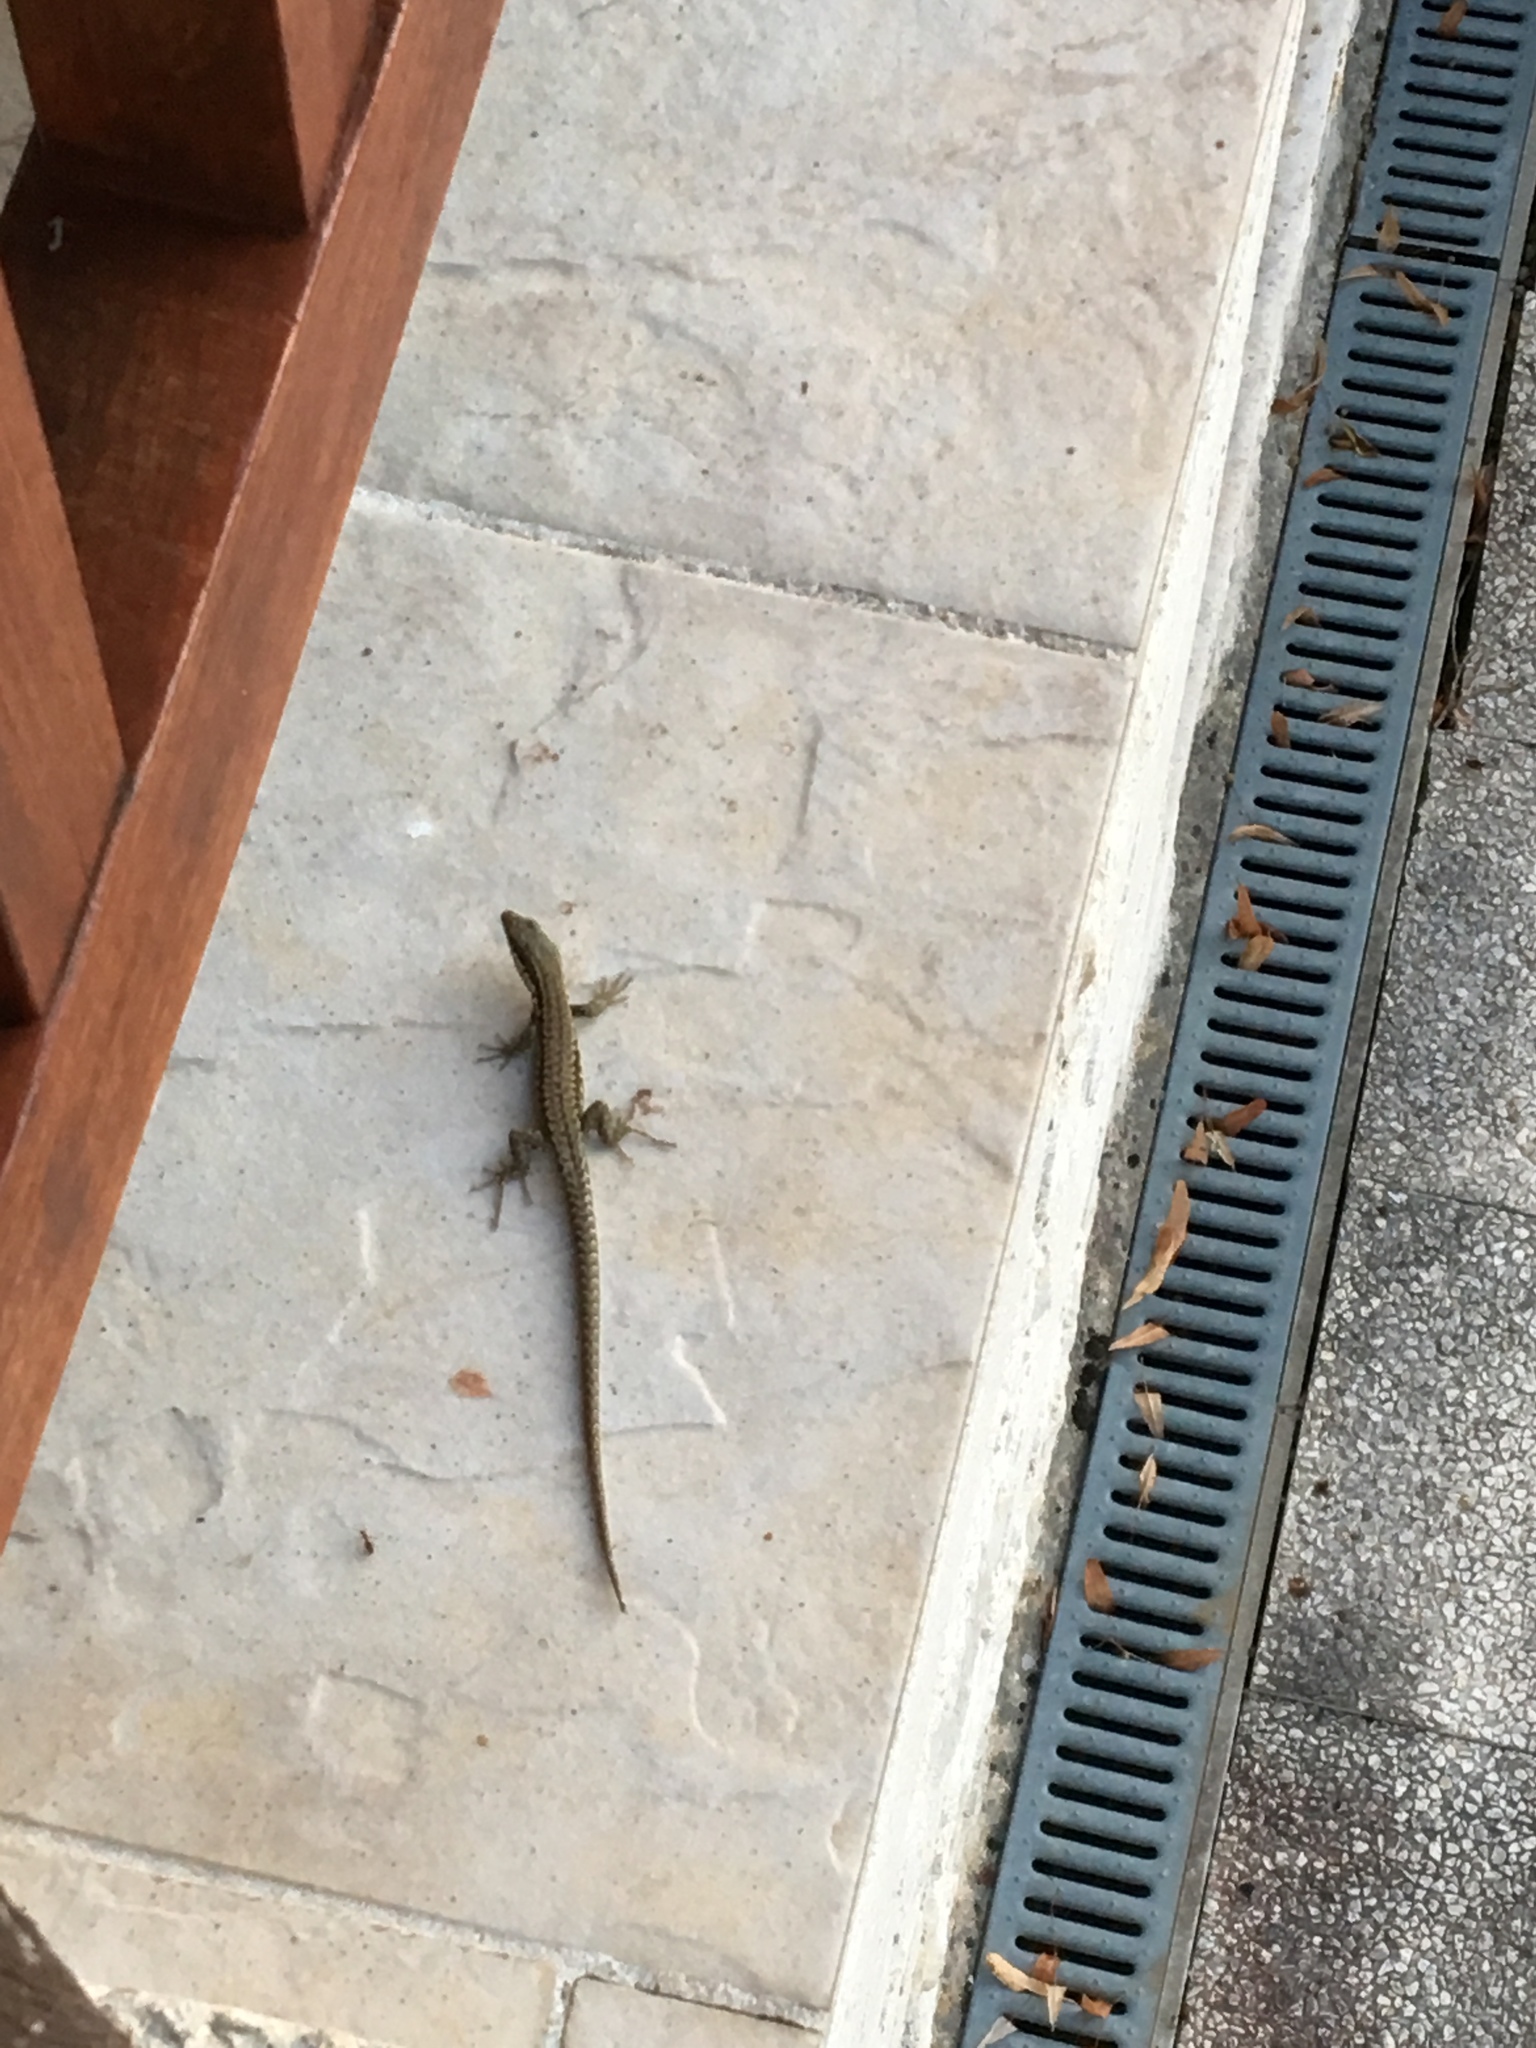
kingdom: Animalia
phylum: Chordata
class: Squamata
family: Lacertidae
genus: Podarcis
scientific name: Podarcis muralis
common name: Common wall lizard
